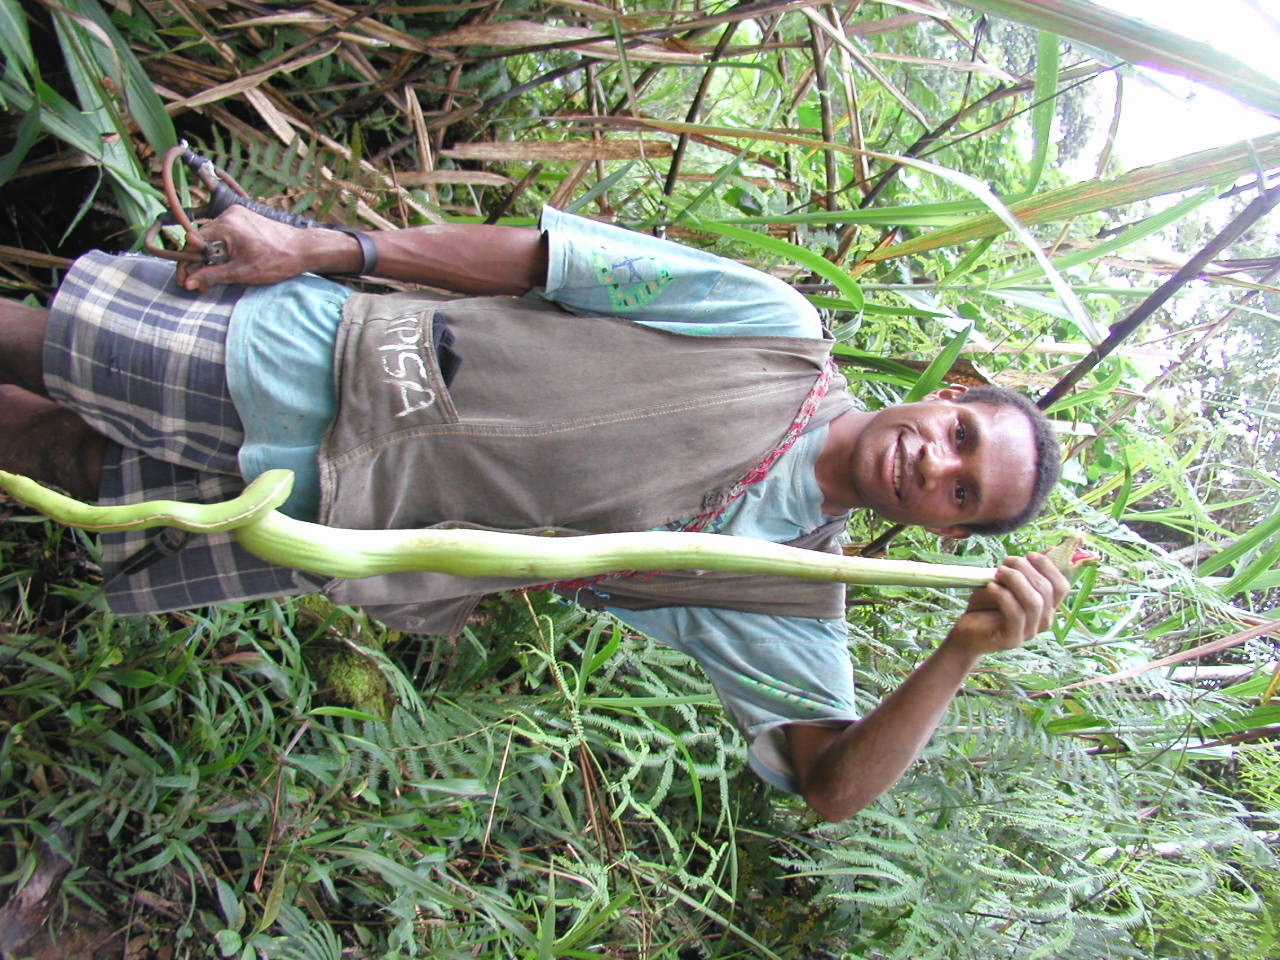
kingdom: Animalia
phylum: Chordata
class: Squamata
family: Pythonidae
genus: Morelia
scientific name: Morelia viridis
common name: Green tree python
